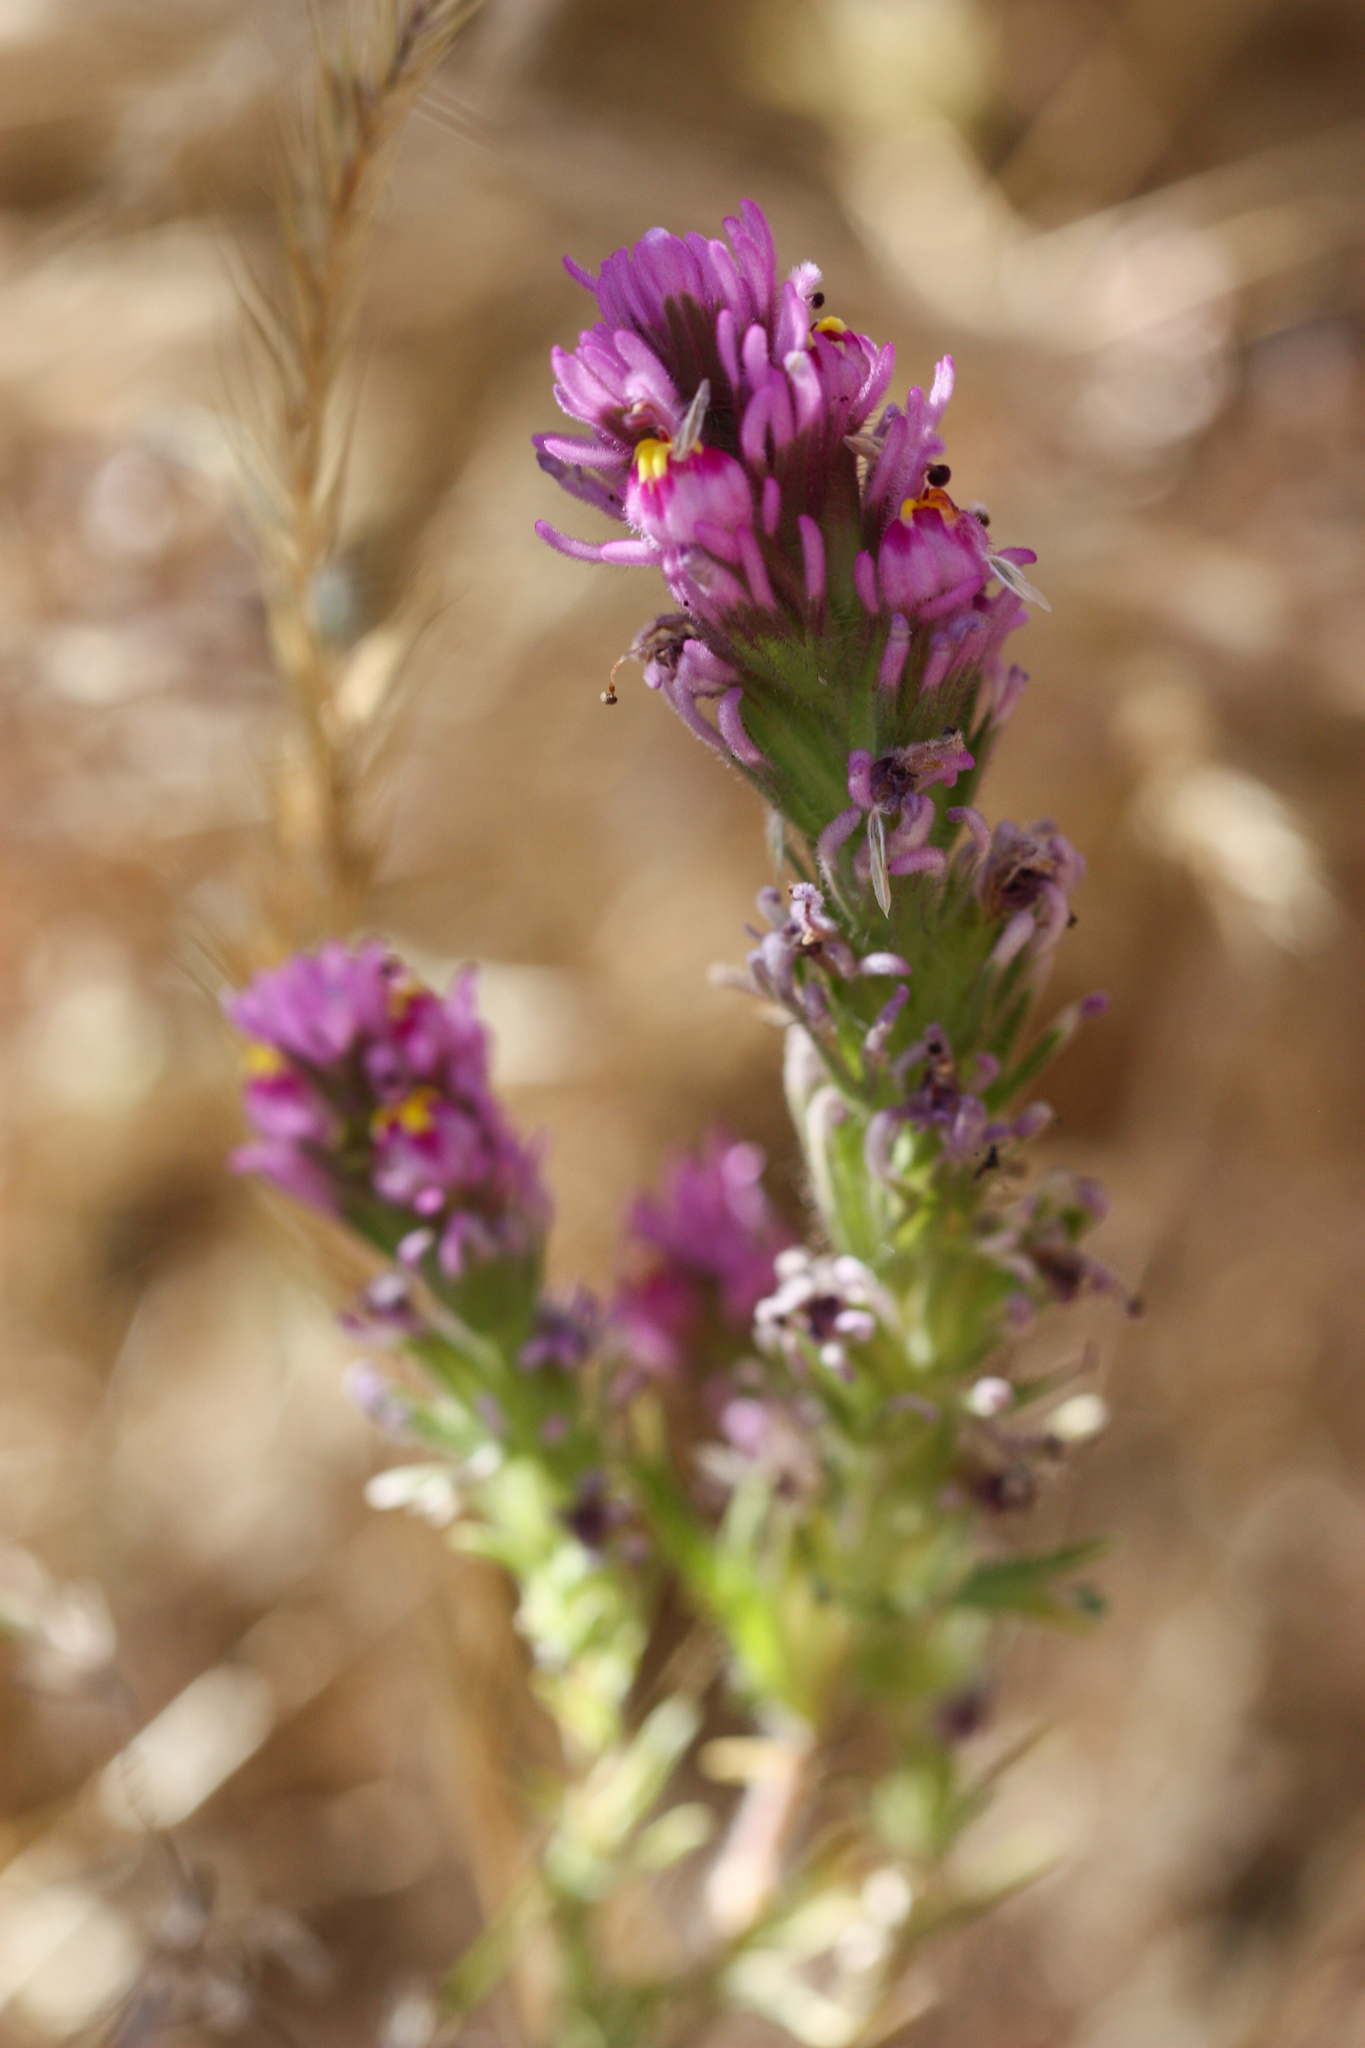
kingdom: Plantae
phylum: Tracheophyta
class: Magnoliopsida
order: Lamiales
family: Orobanchaceae
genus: Castilleja
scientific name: Castilleja exserta
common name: Purple owl-clover
